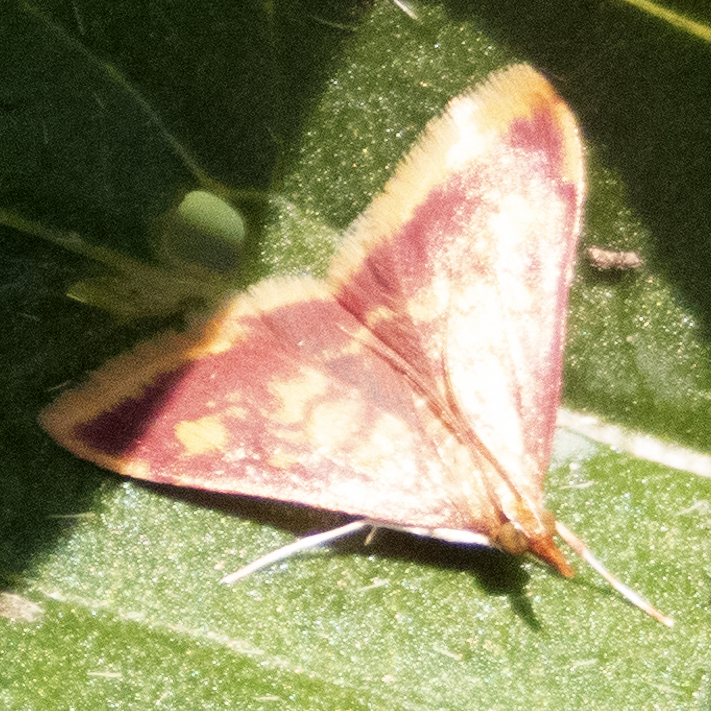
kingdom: Animalia
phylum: Arthropoda
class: Insecta
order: Lepidoptera
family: Crambidae
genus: Pyrausta
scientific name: Pyrausta acrionalis
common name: Mint-loving pyrausta moth
